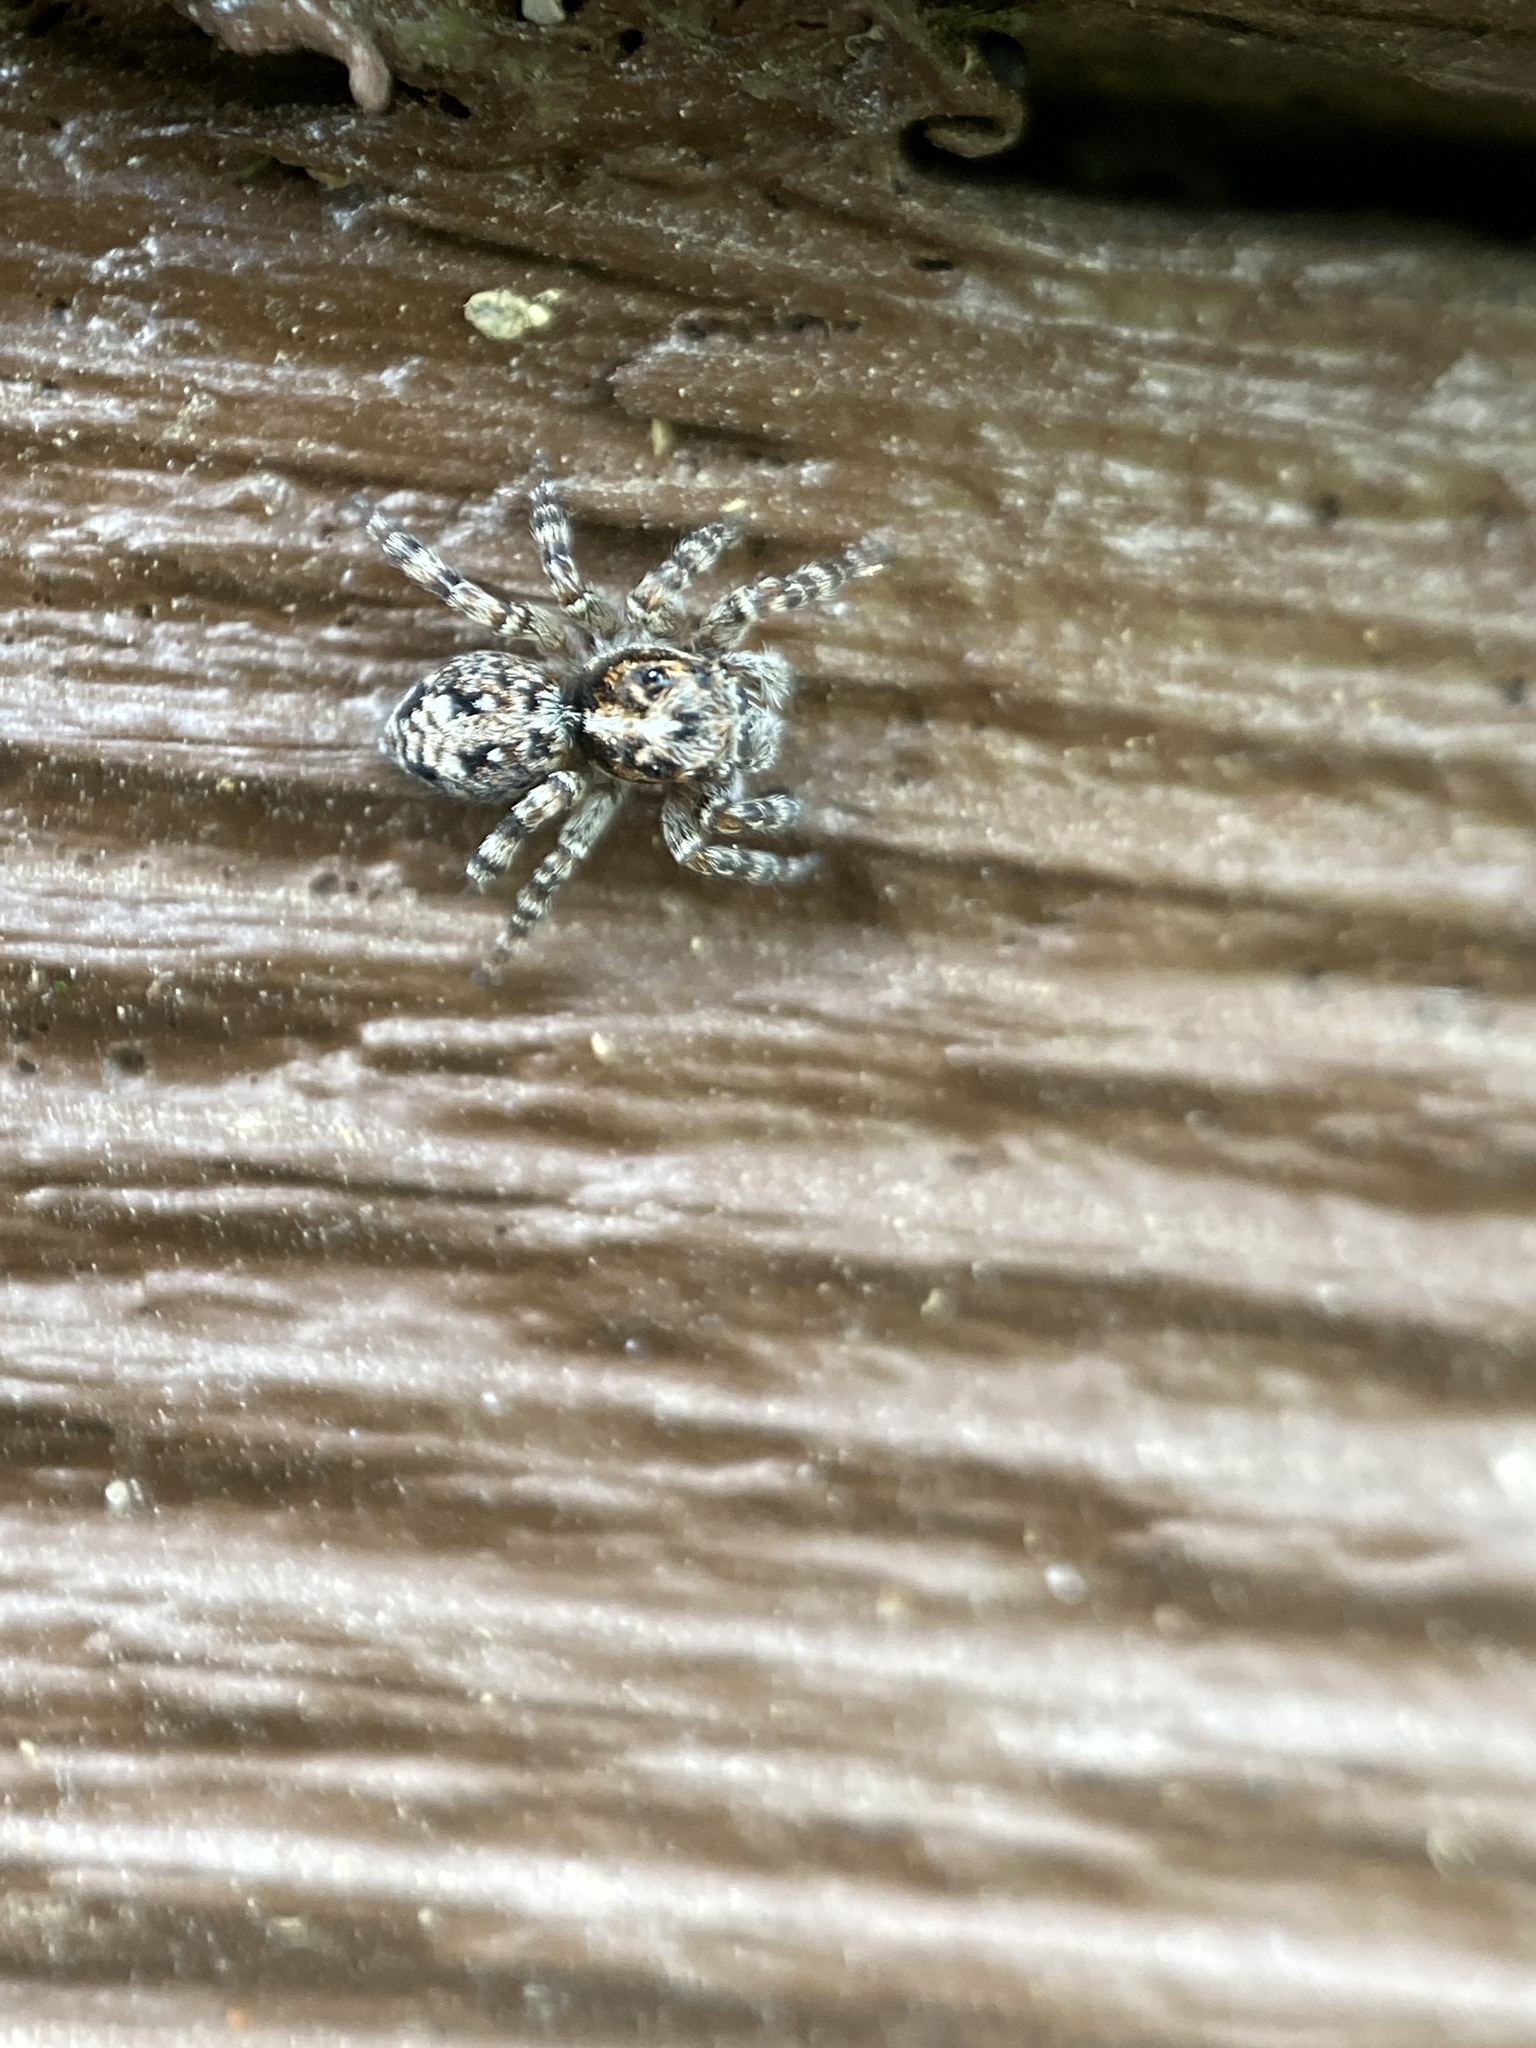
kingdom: Animalia
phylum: Arthropoda
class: Arachnida
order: Araneae
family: Salticidae
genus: Attulus
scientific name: Attulus terebratus
